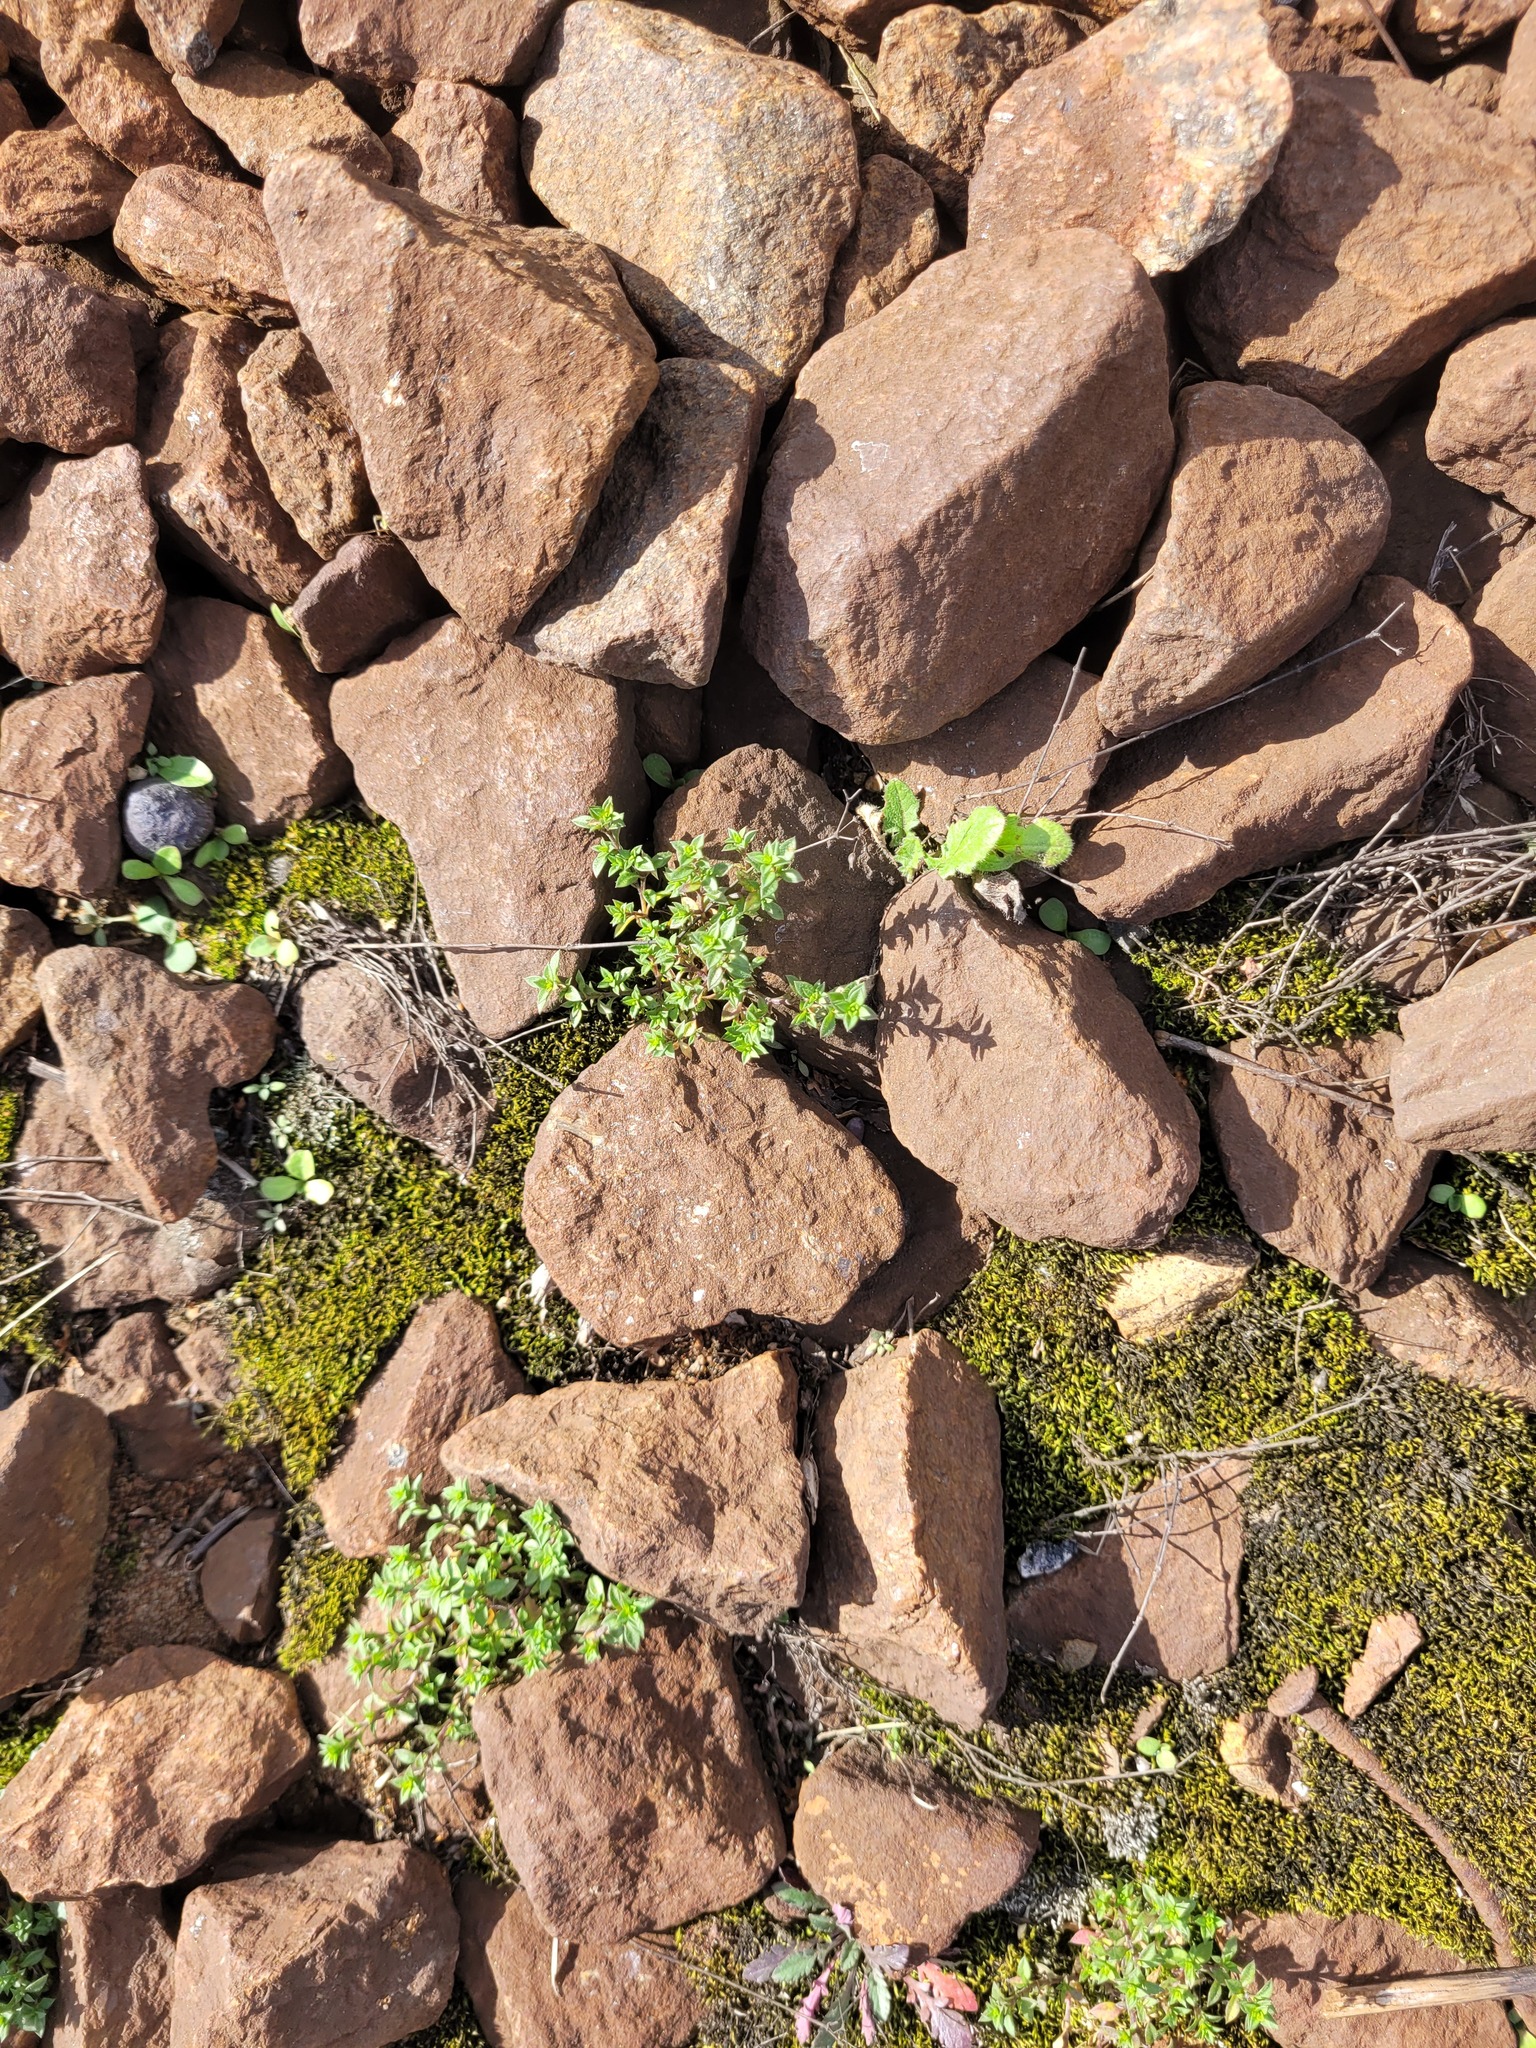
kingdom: Plantae
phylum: Tracheophyta
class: Magnoliopsida
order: Caryophyllales
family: Caryophyllaceae
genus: Arenaria
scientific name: Arenaria serpyllifolia
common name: Thyme-leaved sandwort
